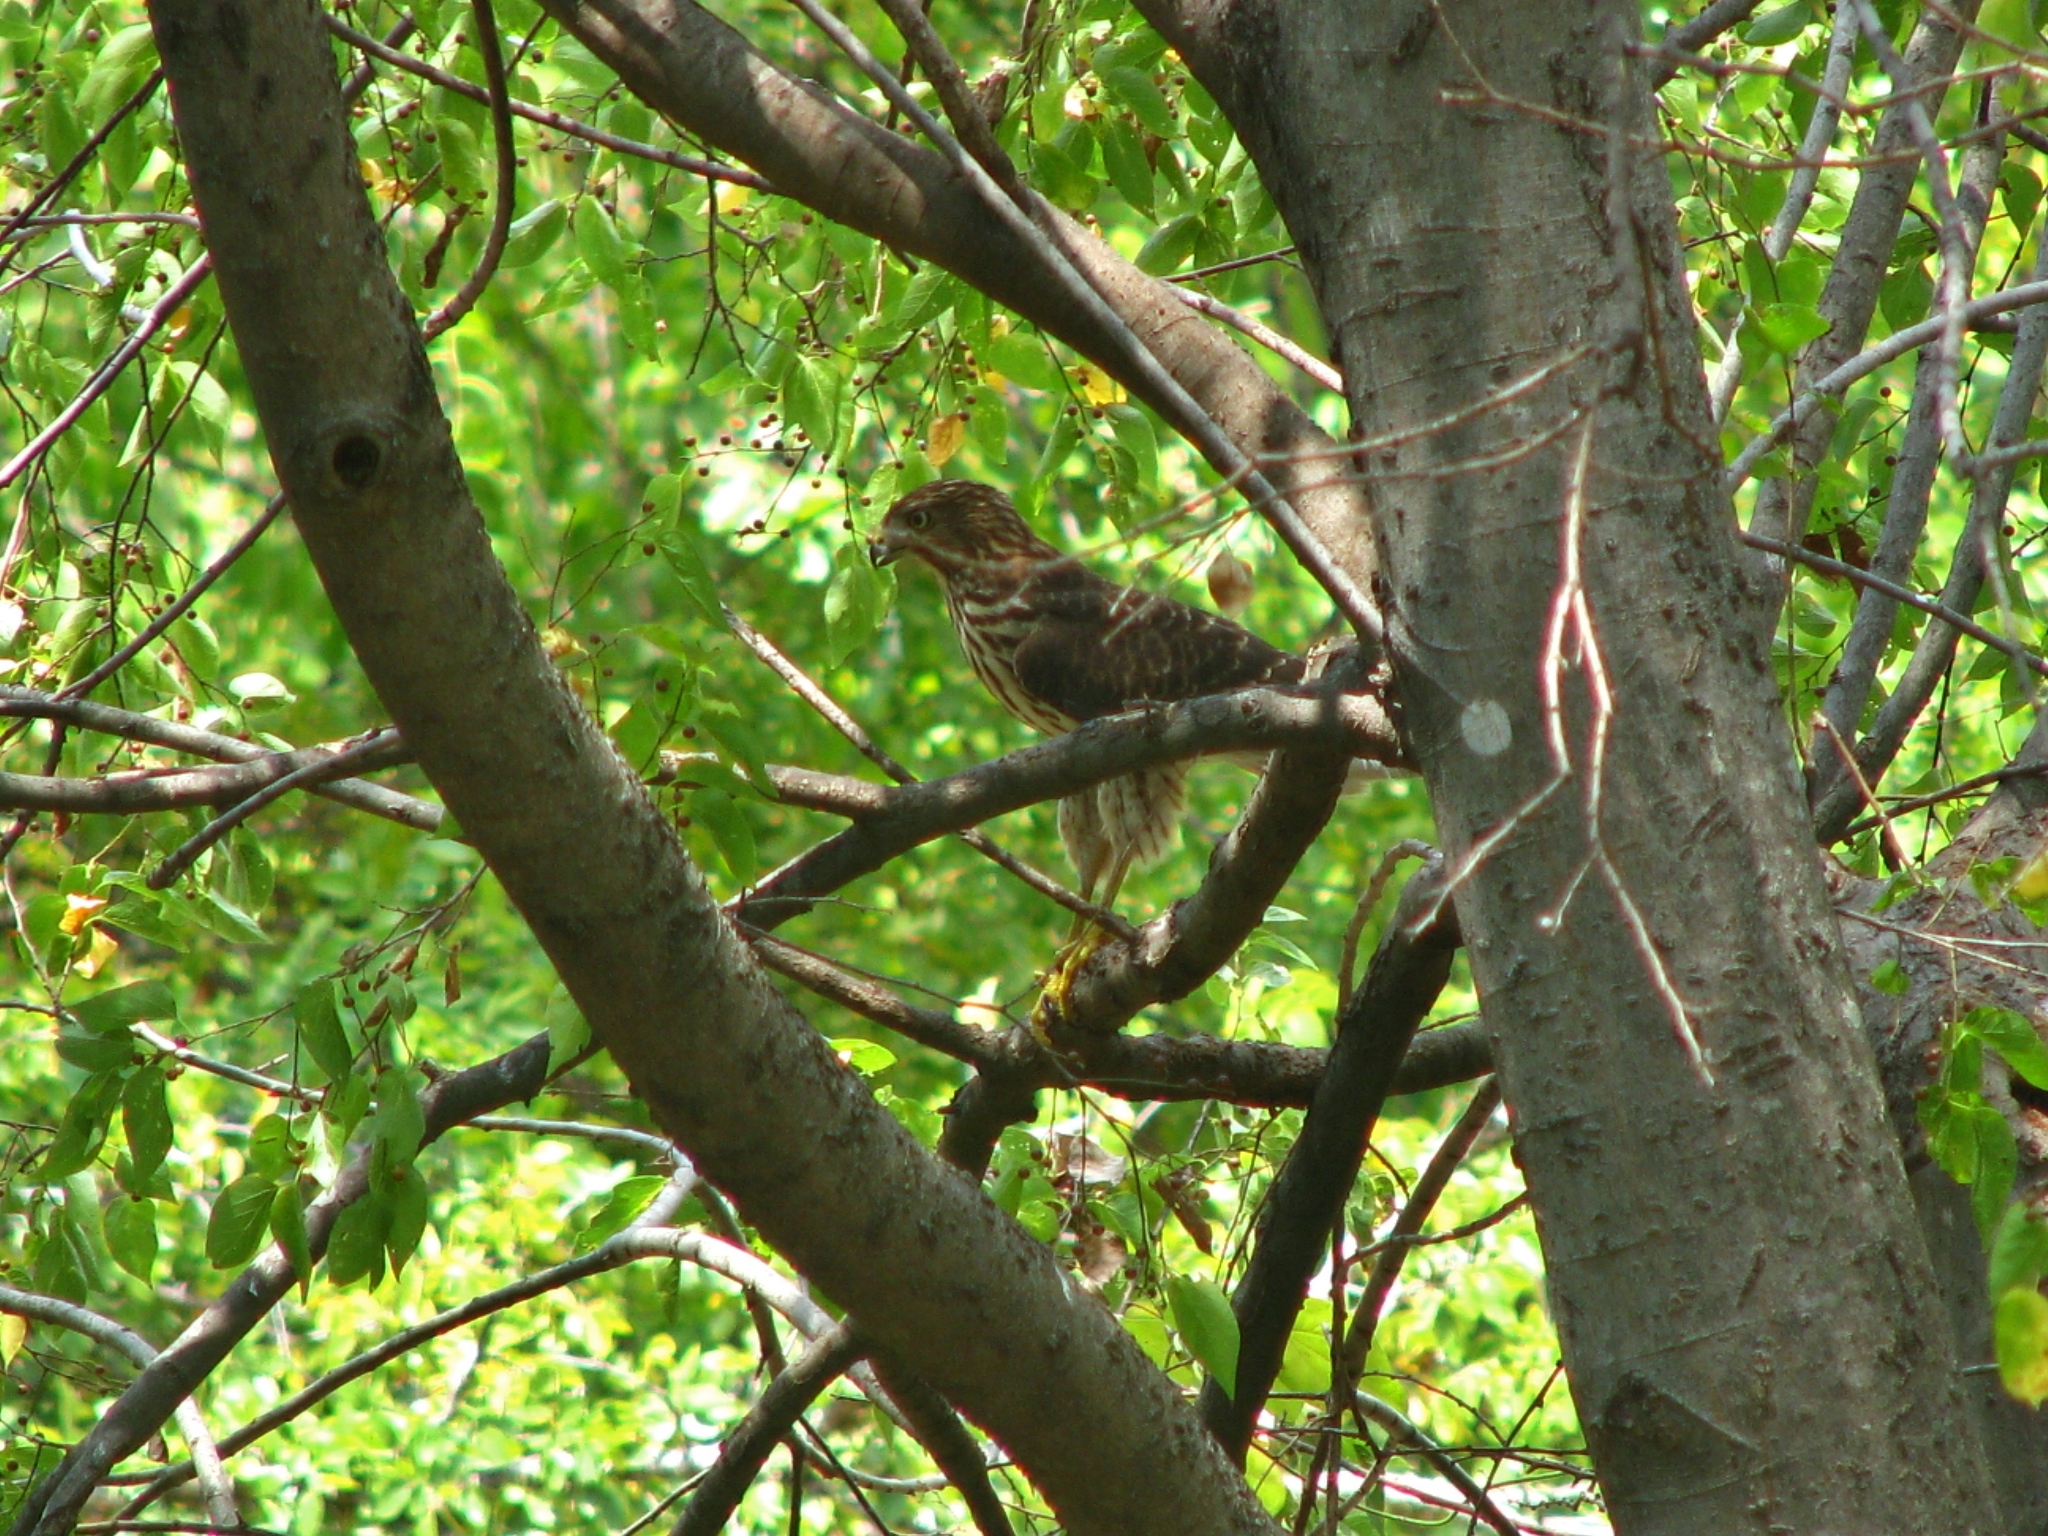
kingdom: Animalia
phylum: Chordata
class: Aves
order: Accipitriformes
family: Accipitridae
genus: Accipiter
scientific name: Accipiter cooperii
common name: Cooper's hawk
